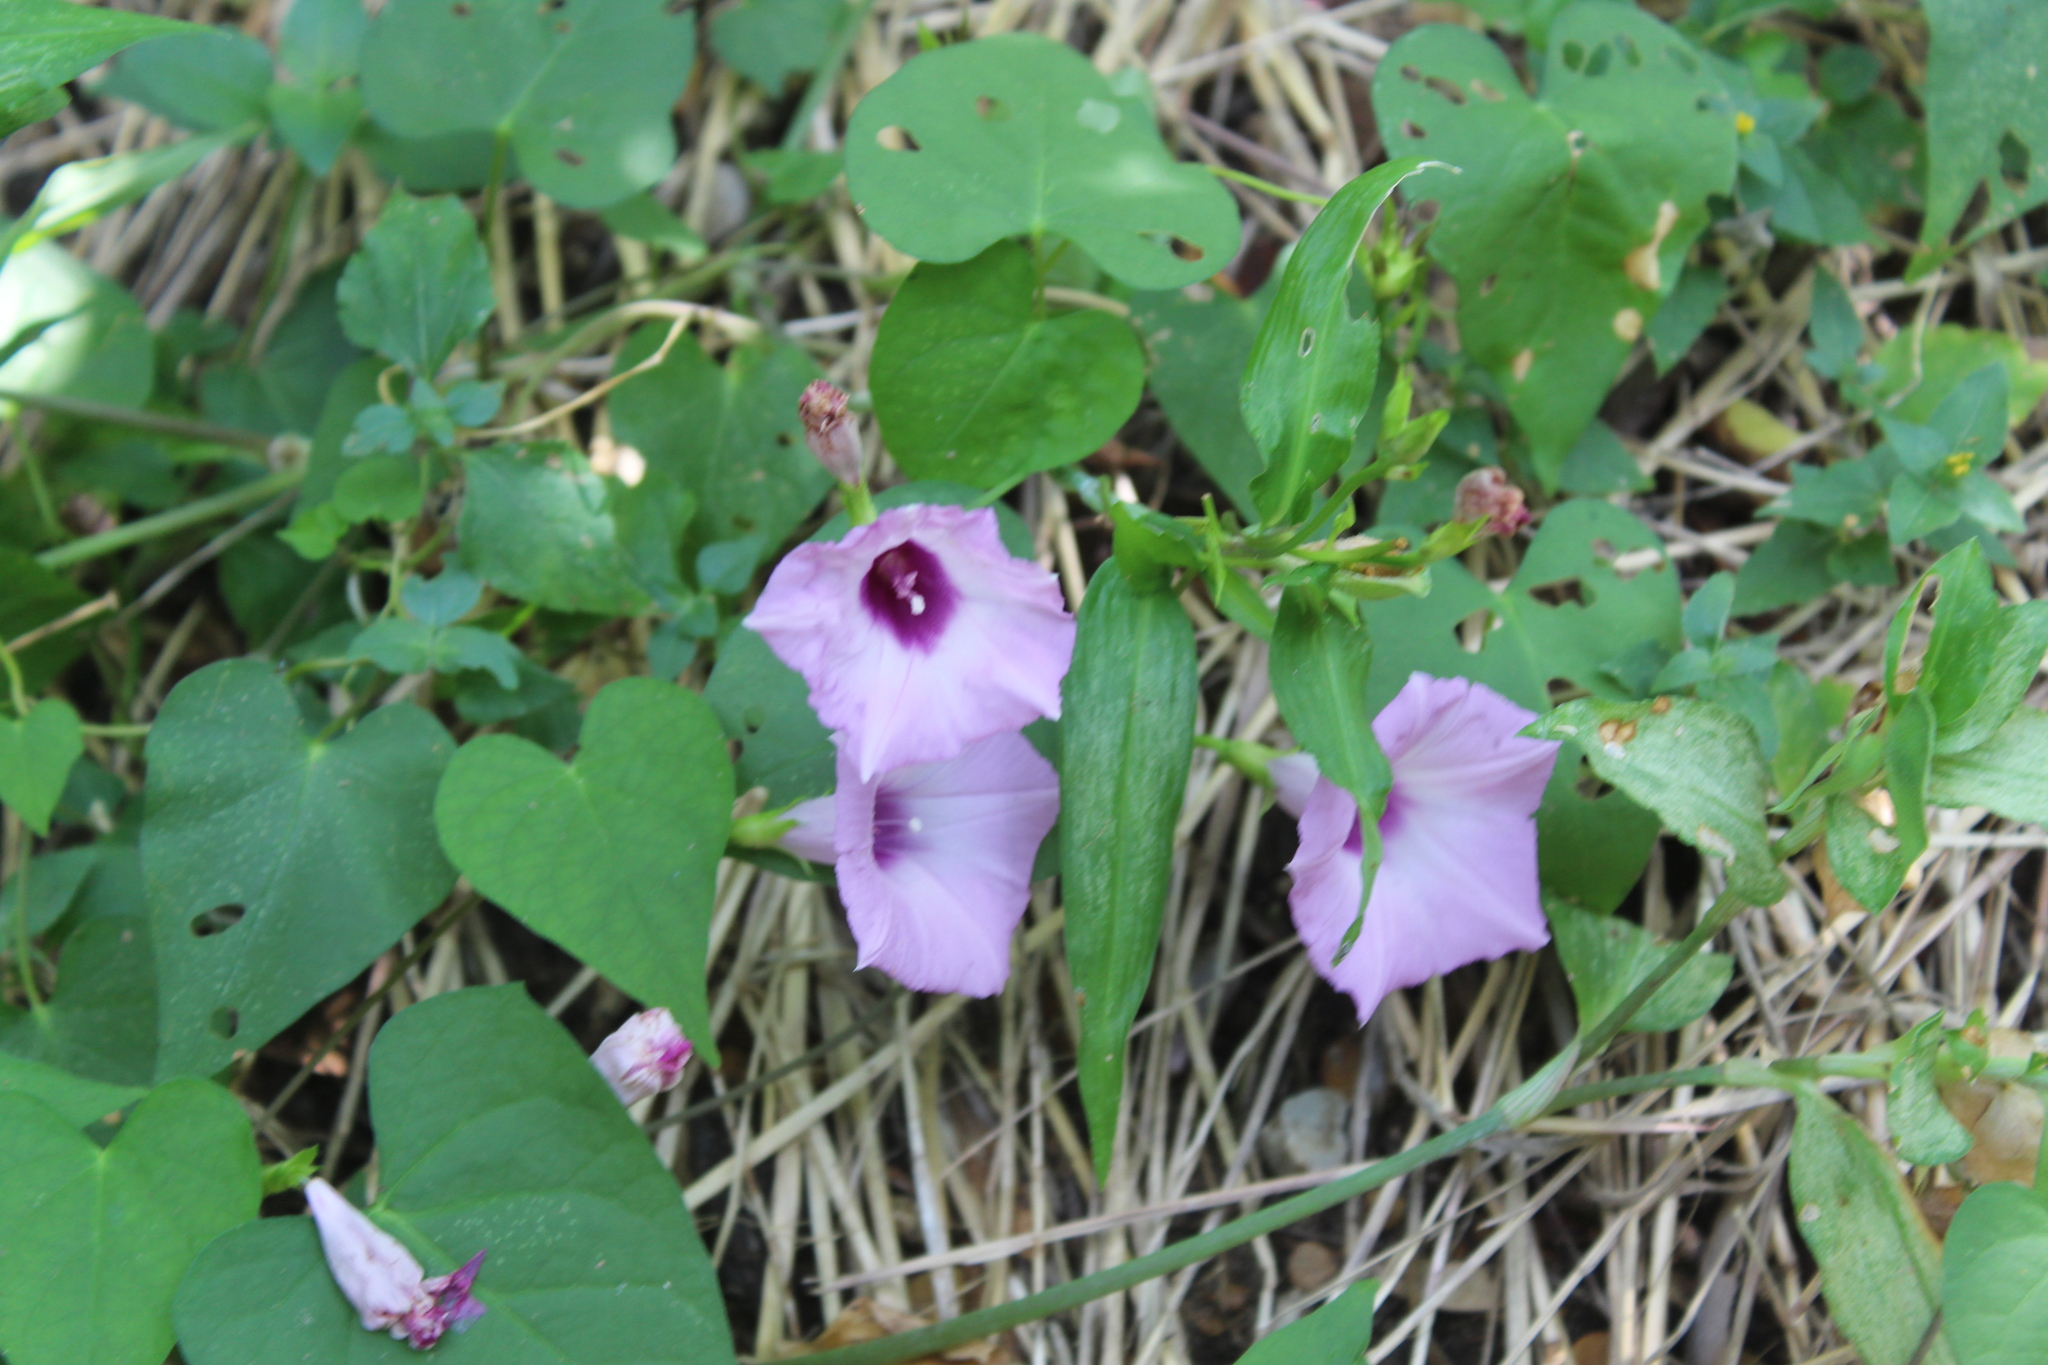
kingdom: Plantae
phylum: Tracheophyta
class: Magnoliopsida
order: Solanales
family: Convolvulaceae
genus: Ipomoea
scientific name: Ipomoea cordatotriloba
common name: Cotton morning glory
